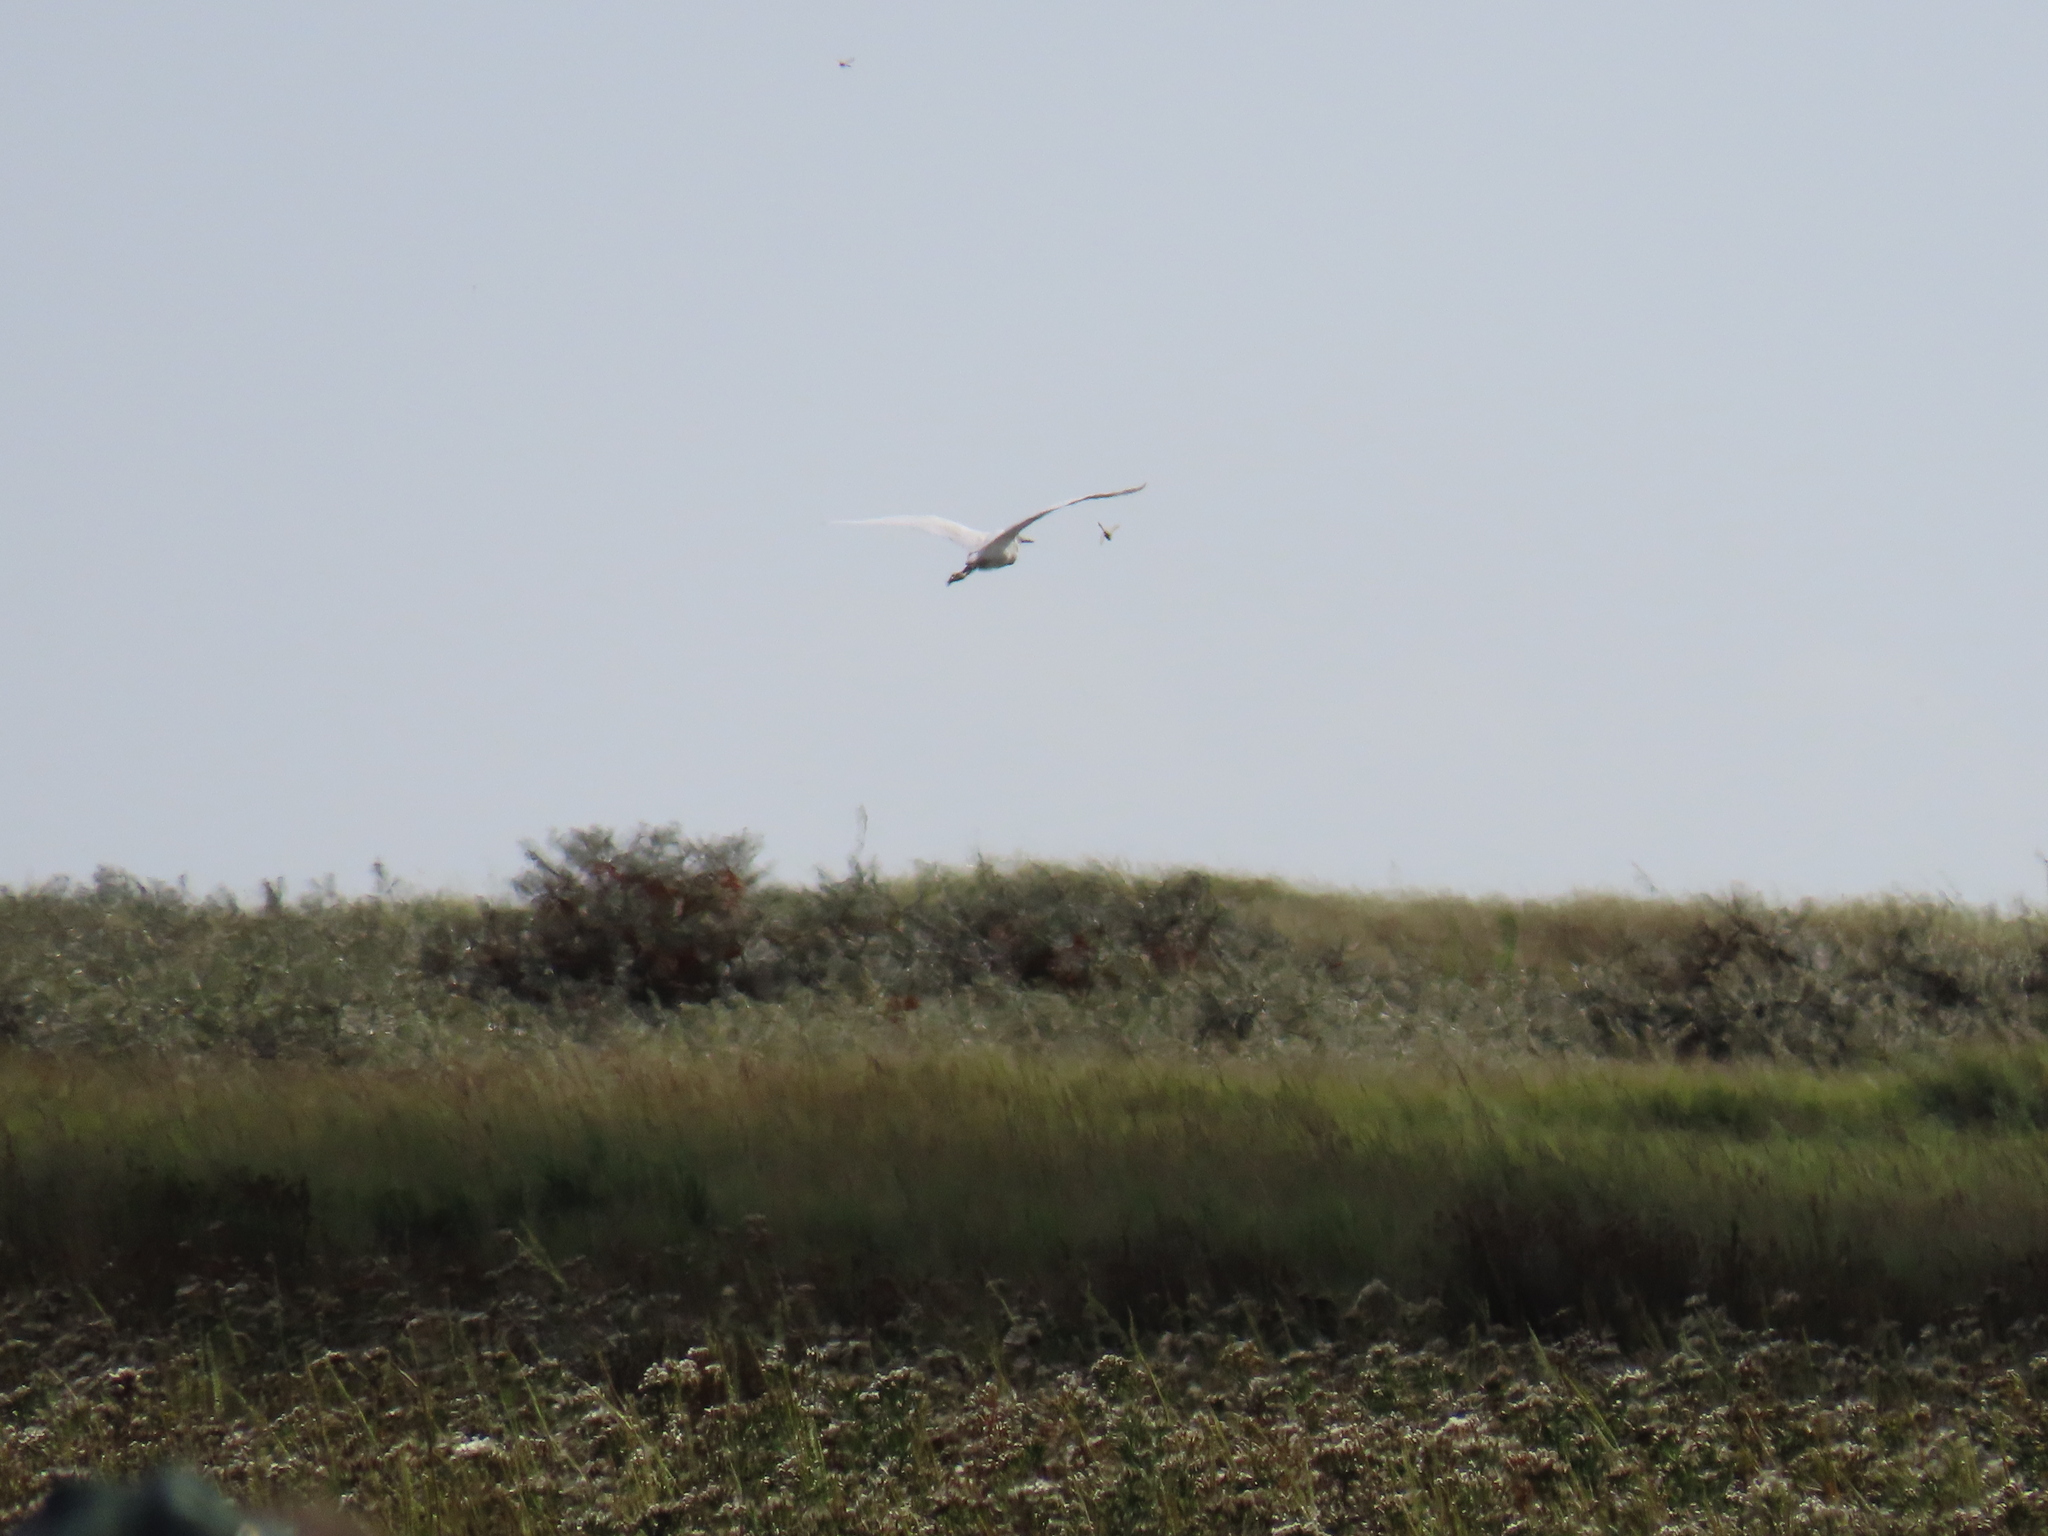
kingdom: Animalia
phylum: Chordata
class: Aves
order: Pelecaniformes
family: Ardeidae
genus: Egretta
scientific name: Egretta garzetta
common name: Little egret
